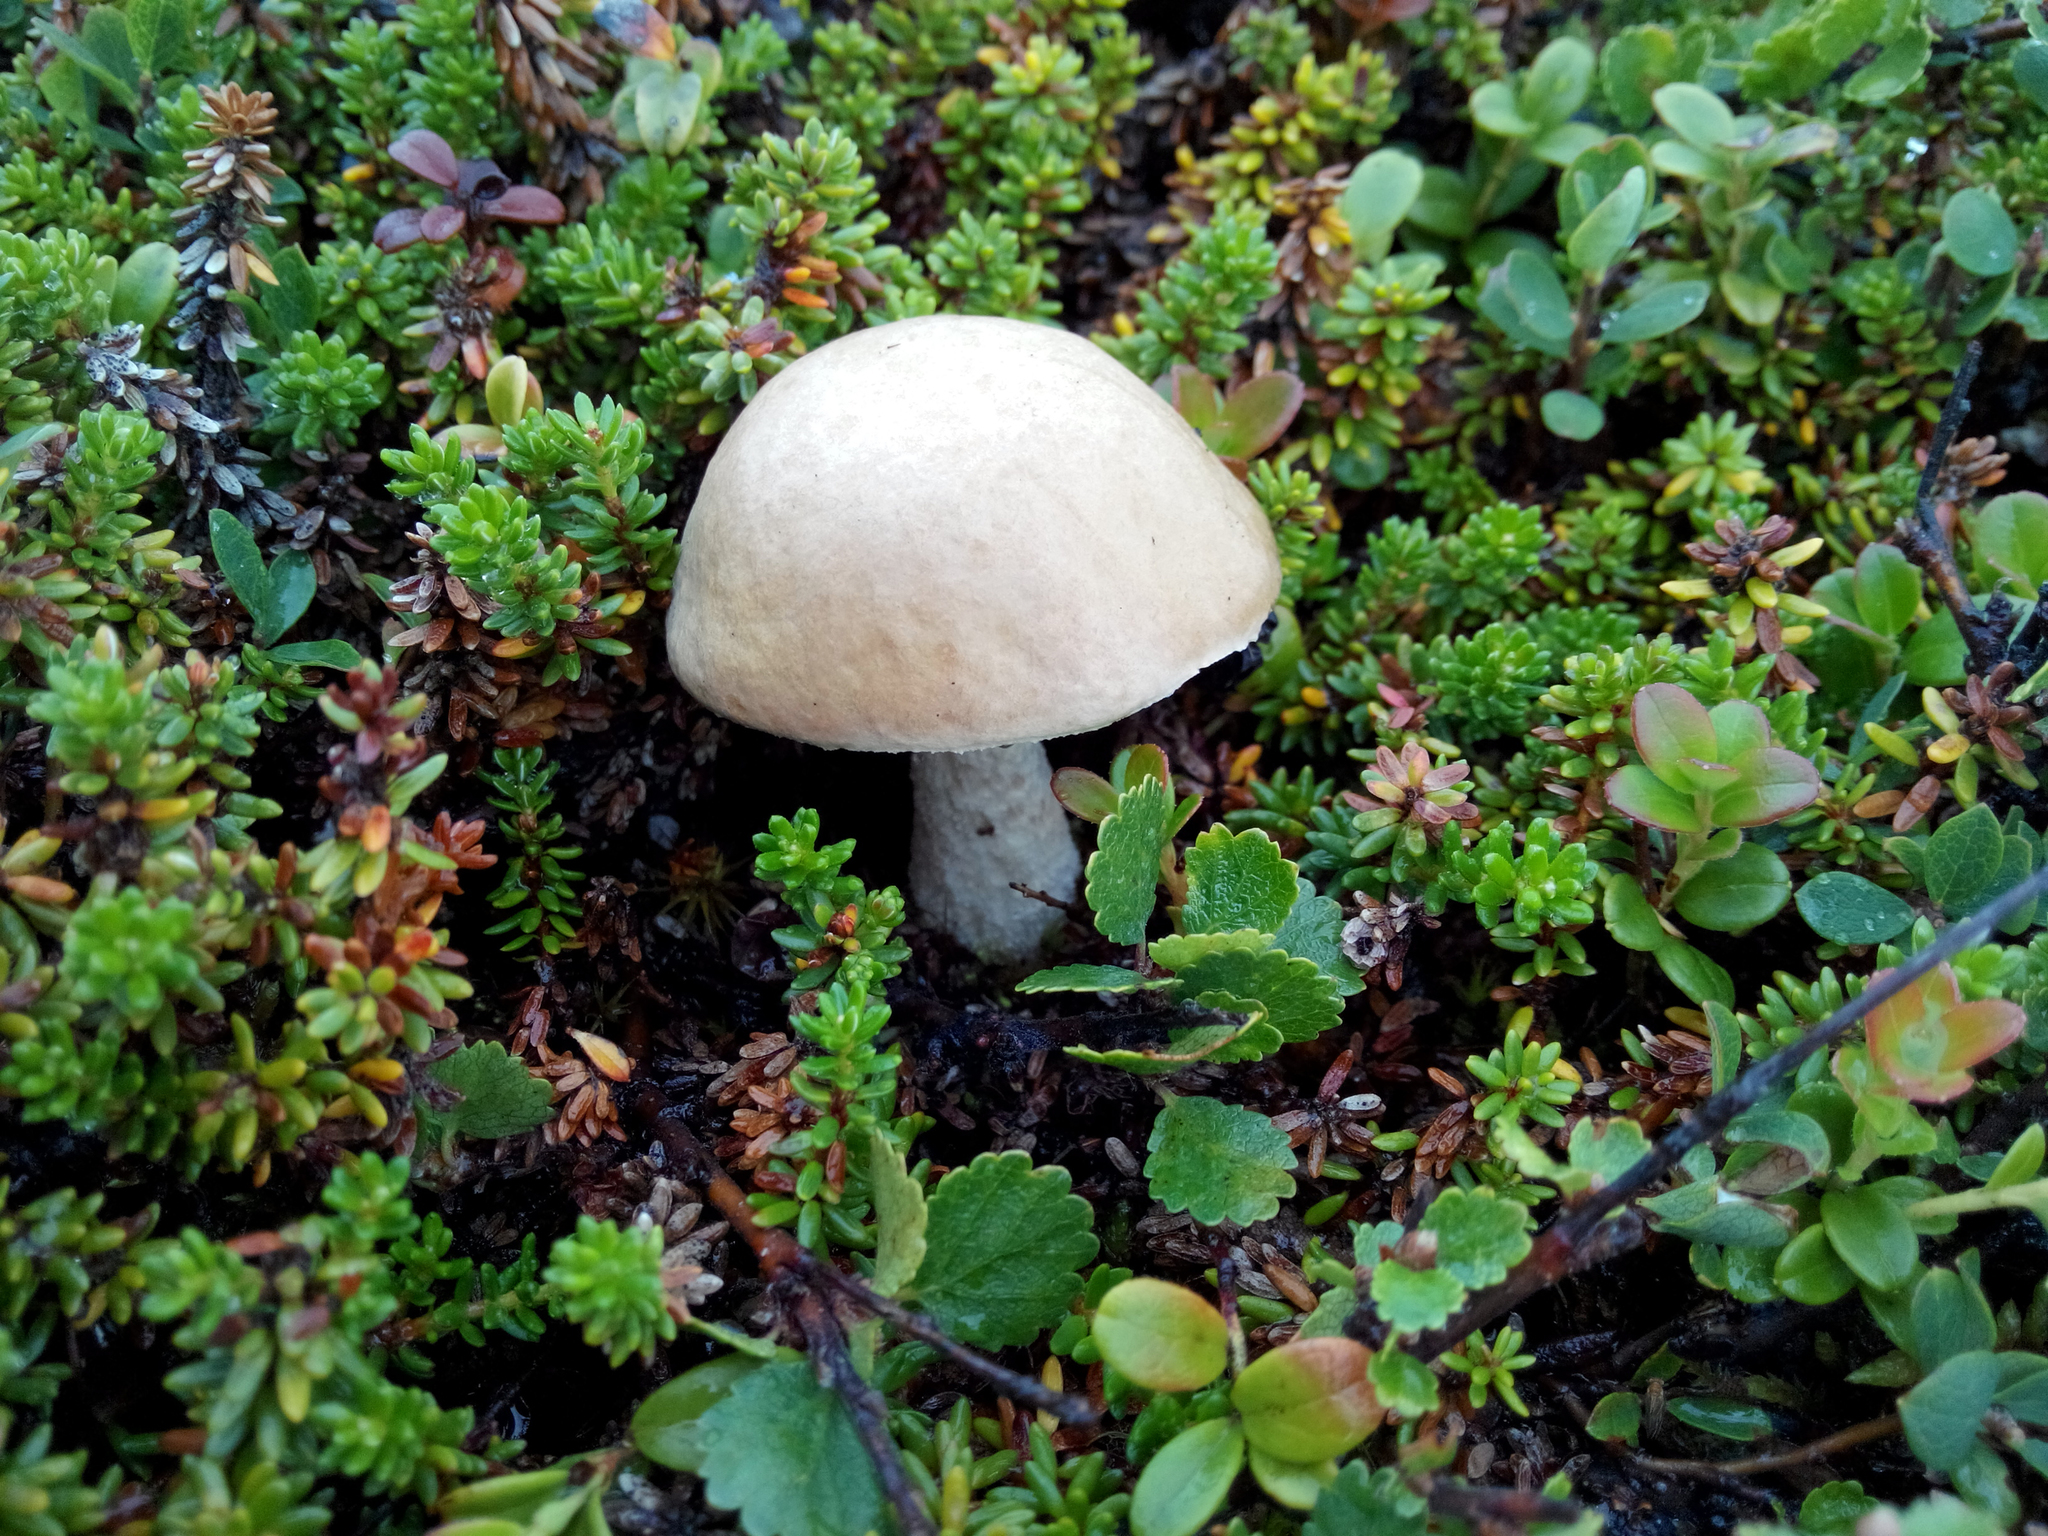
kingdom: Fungi
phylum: Basidiomycota
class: Agaricomycetes
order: Boletales
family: Boletaceae
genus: Leccinum
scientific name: Leccinum holopus
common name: Ghost bolete
